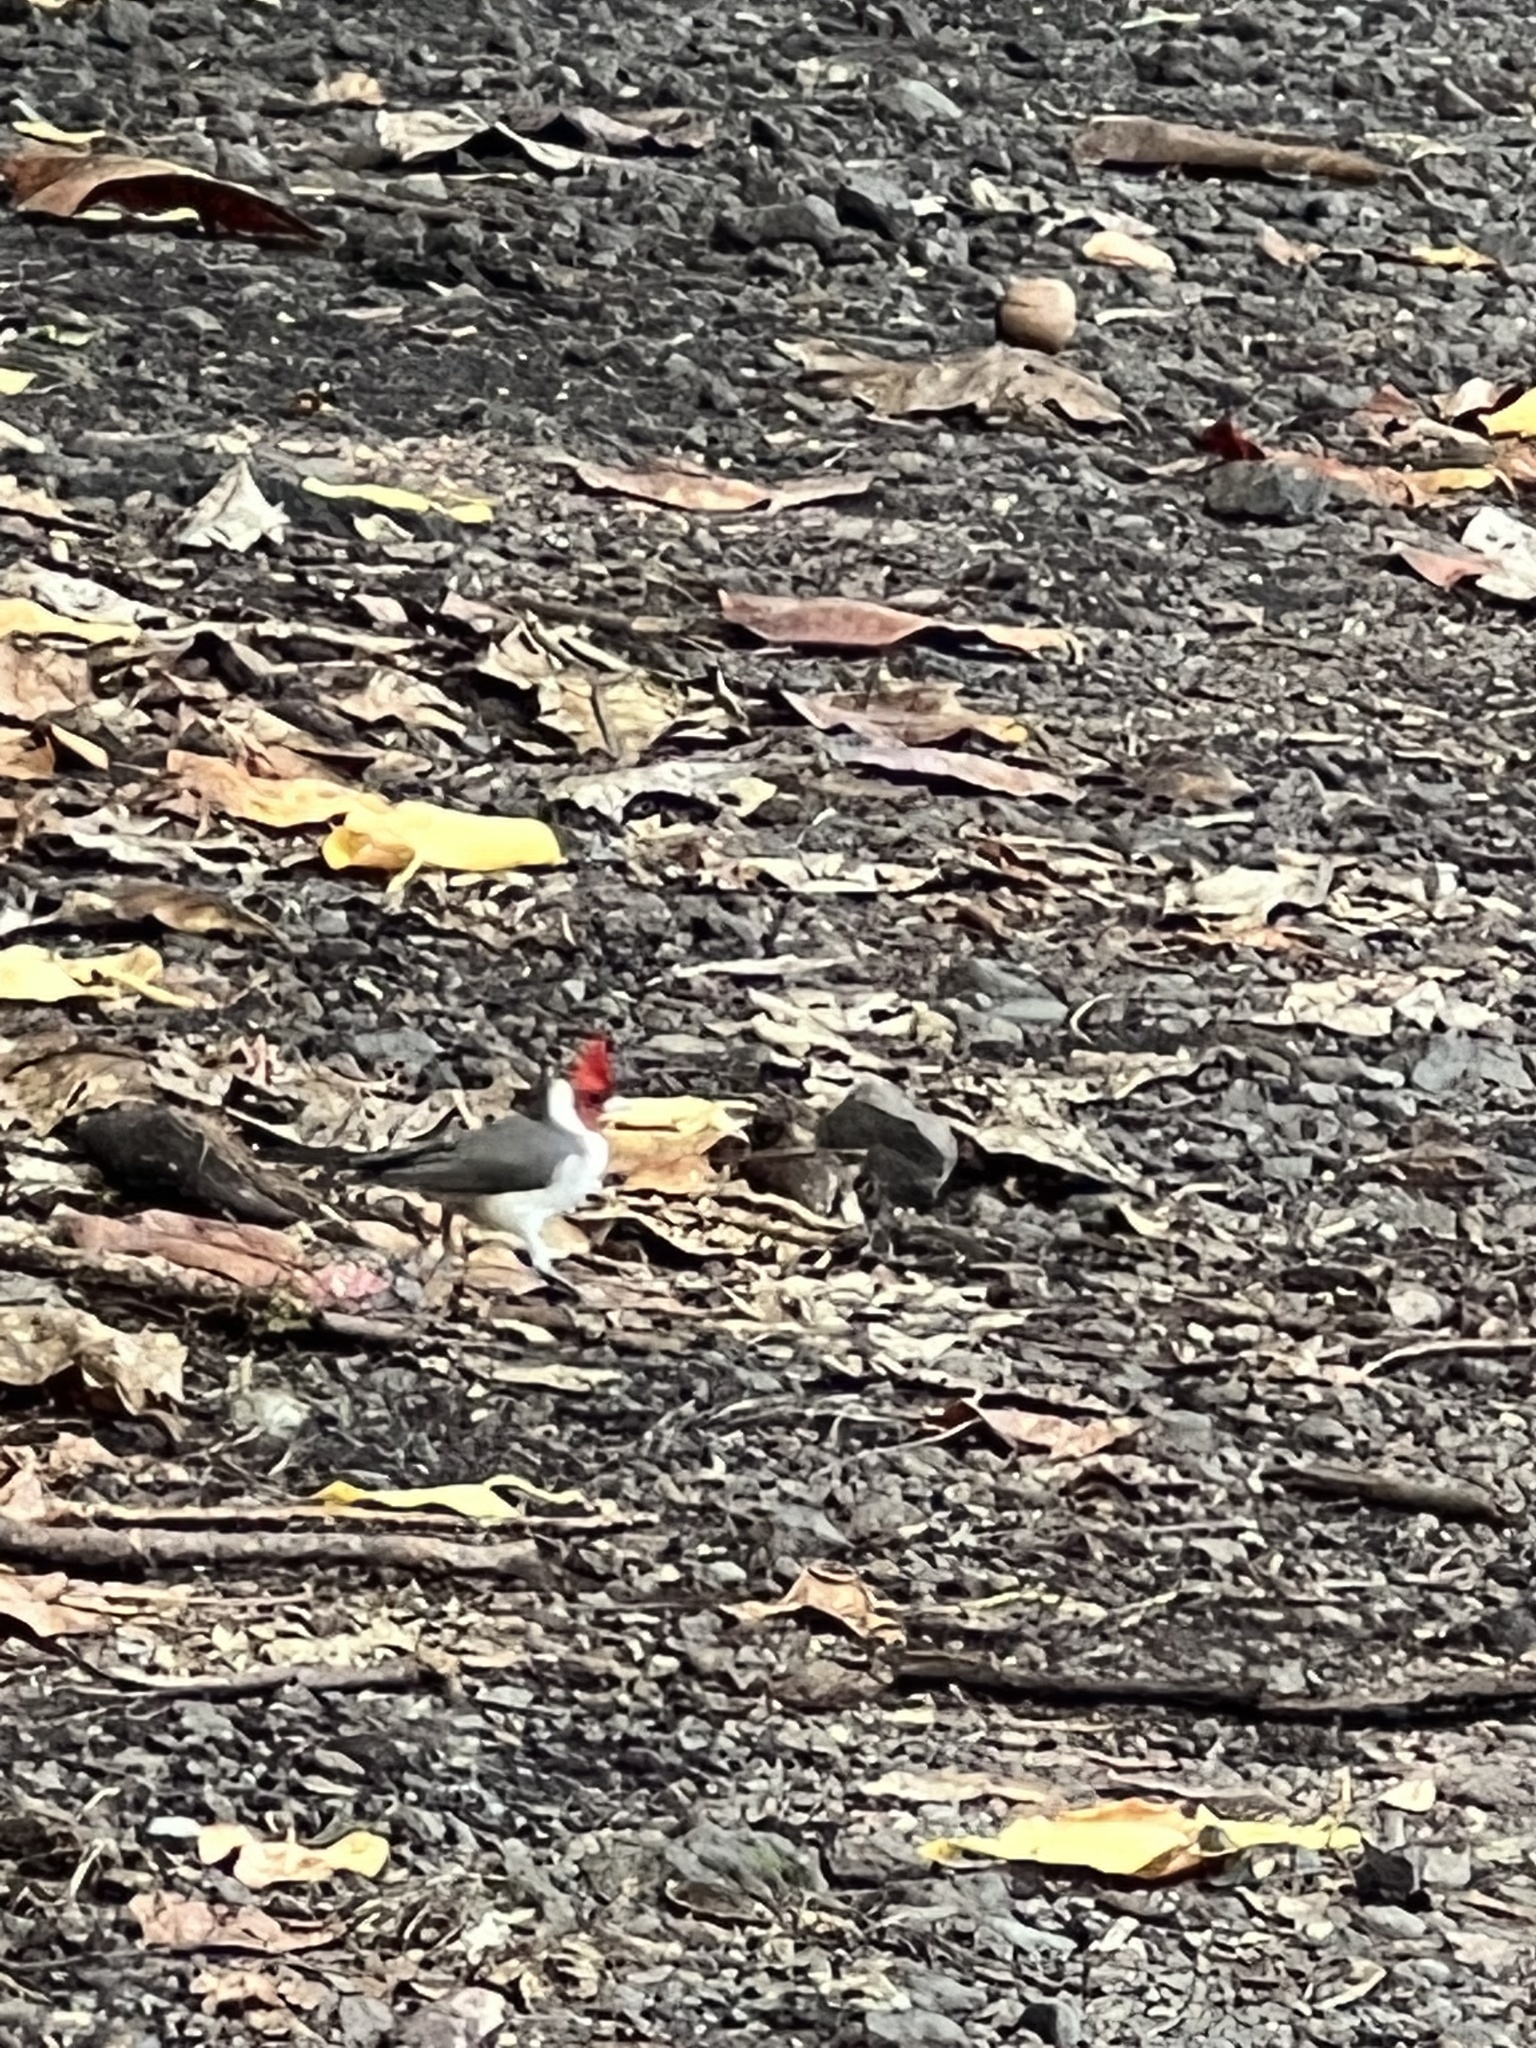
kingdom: Animalia
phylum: Chordata
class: Aves
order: Passeriformes
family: Thraupidae
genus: Paroaria
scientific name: Paroaria coronata
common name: Red-crested cardinal
